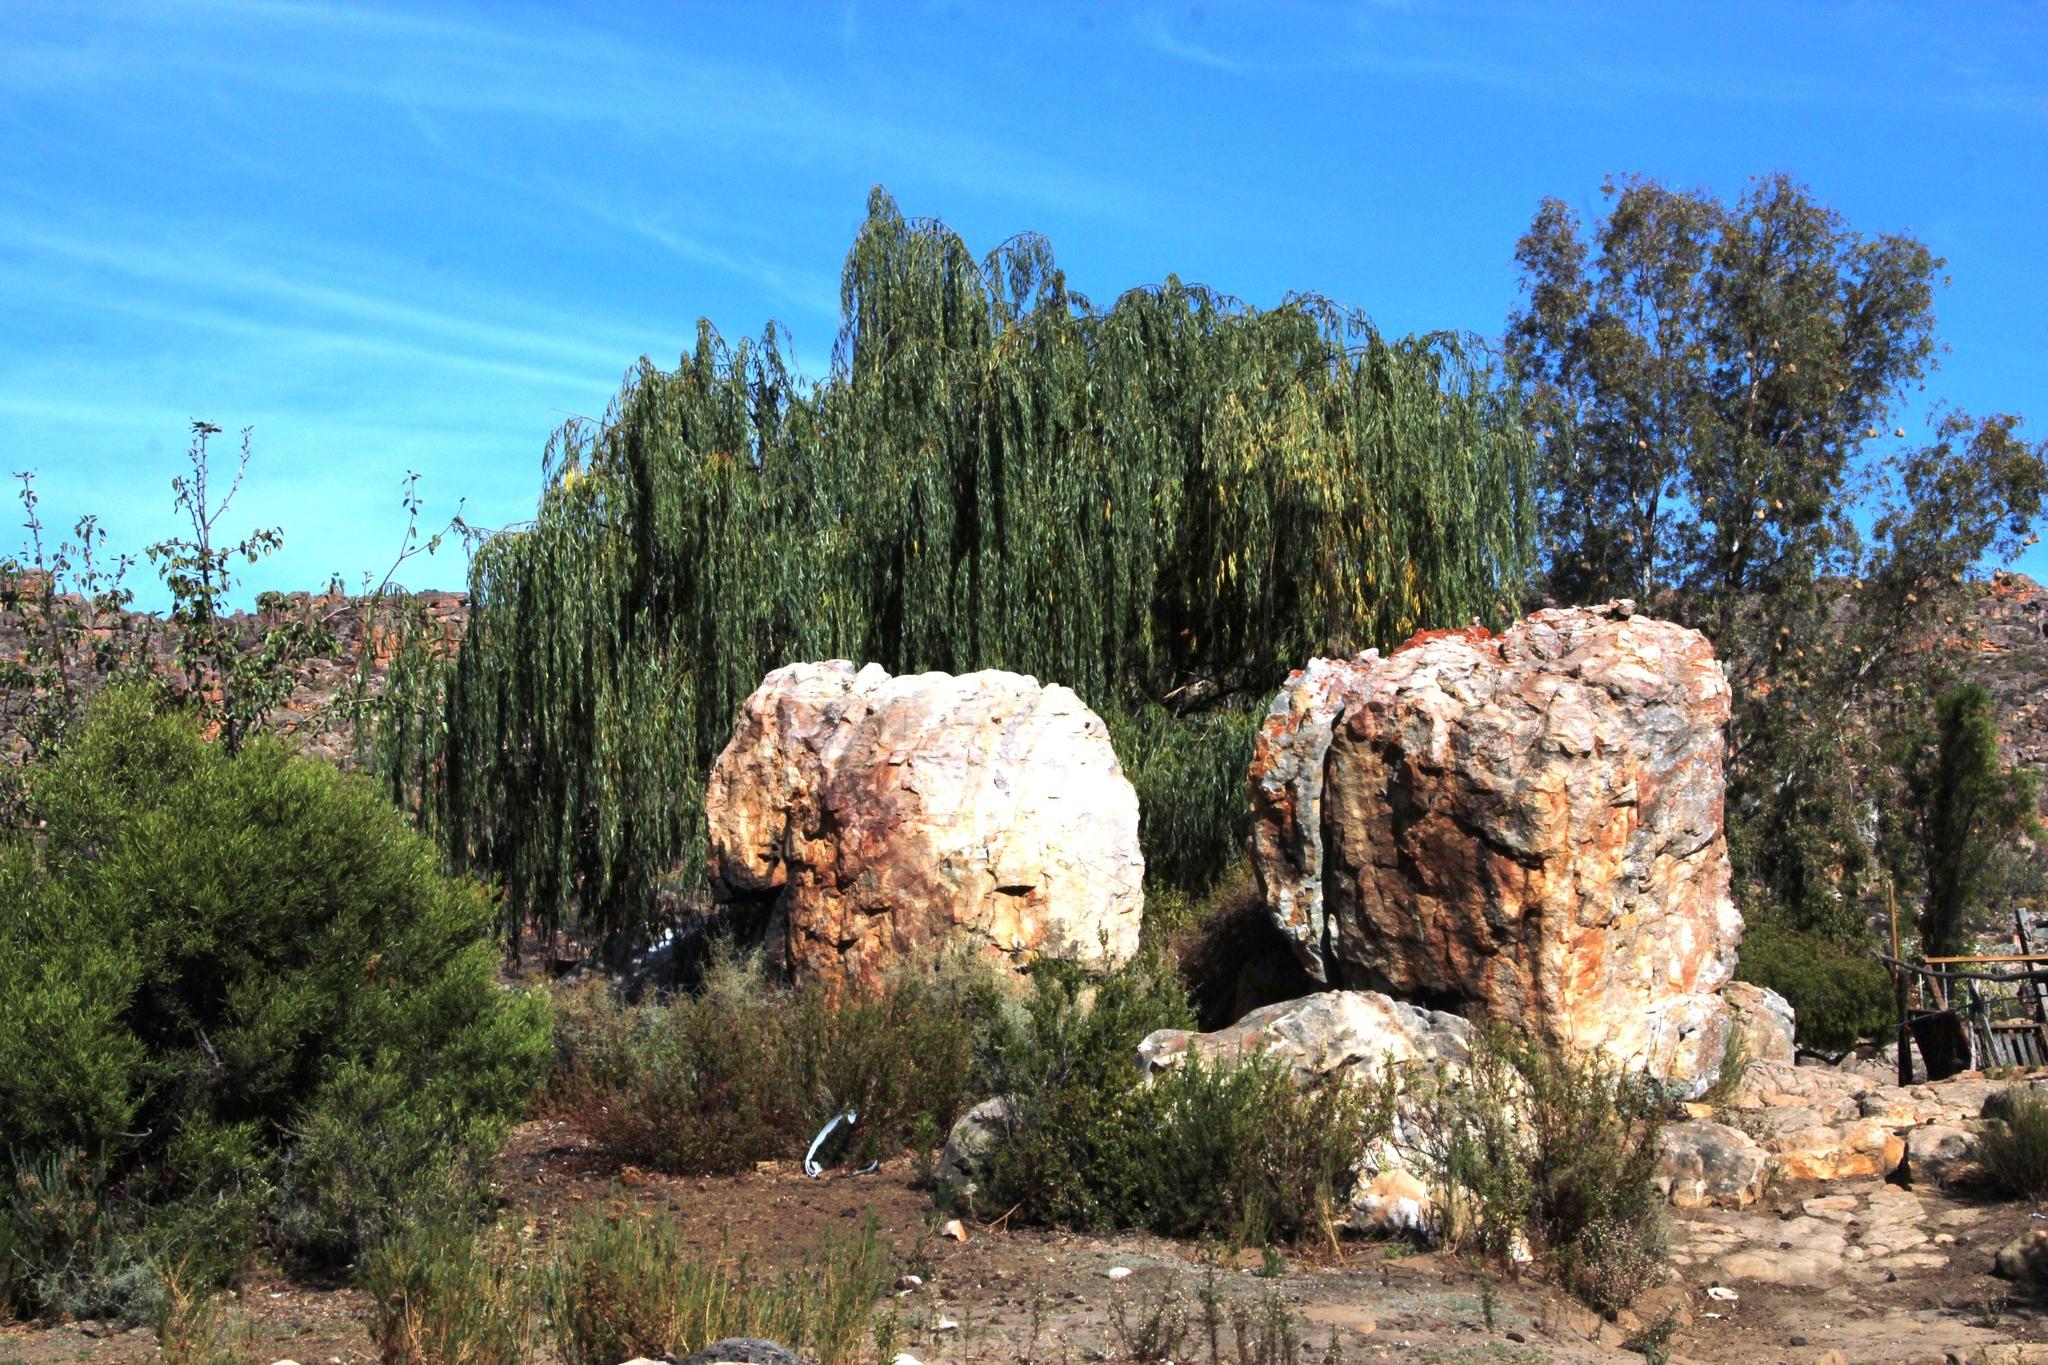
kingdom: Plantae
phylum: Tracheophyta
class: Magnoliopsida
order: Malpighiales
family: Salicaceae
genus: Salix
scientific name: Salix babylonica
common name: Weeping willow
